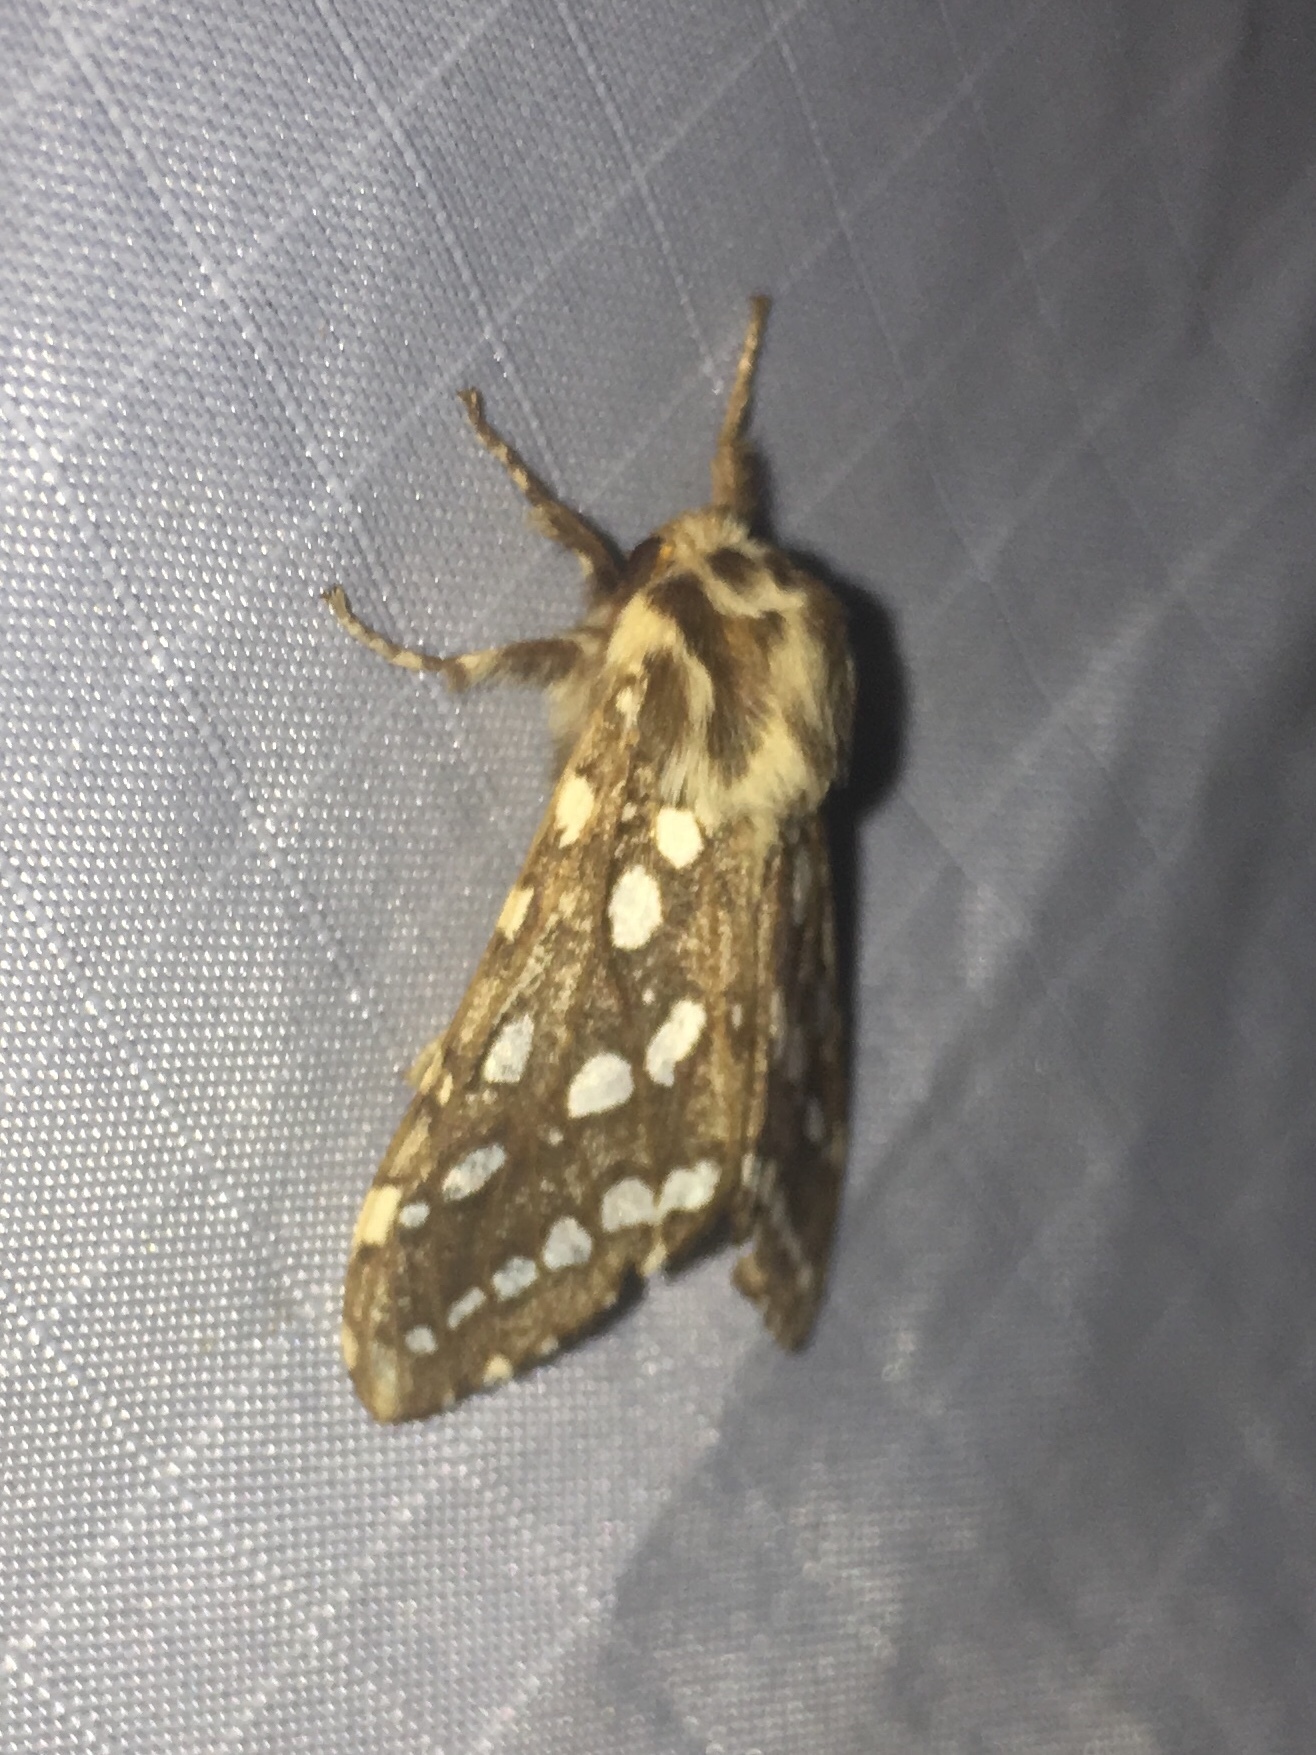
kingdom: Animalia
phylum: Arthropoda
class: Insecta
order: Lepidoptera
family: Erebidae
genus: Lophocampa
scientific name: Lophocampa argentata
